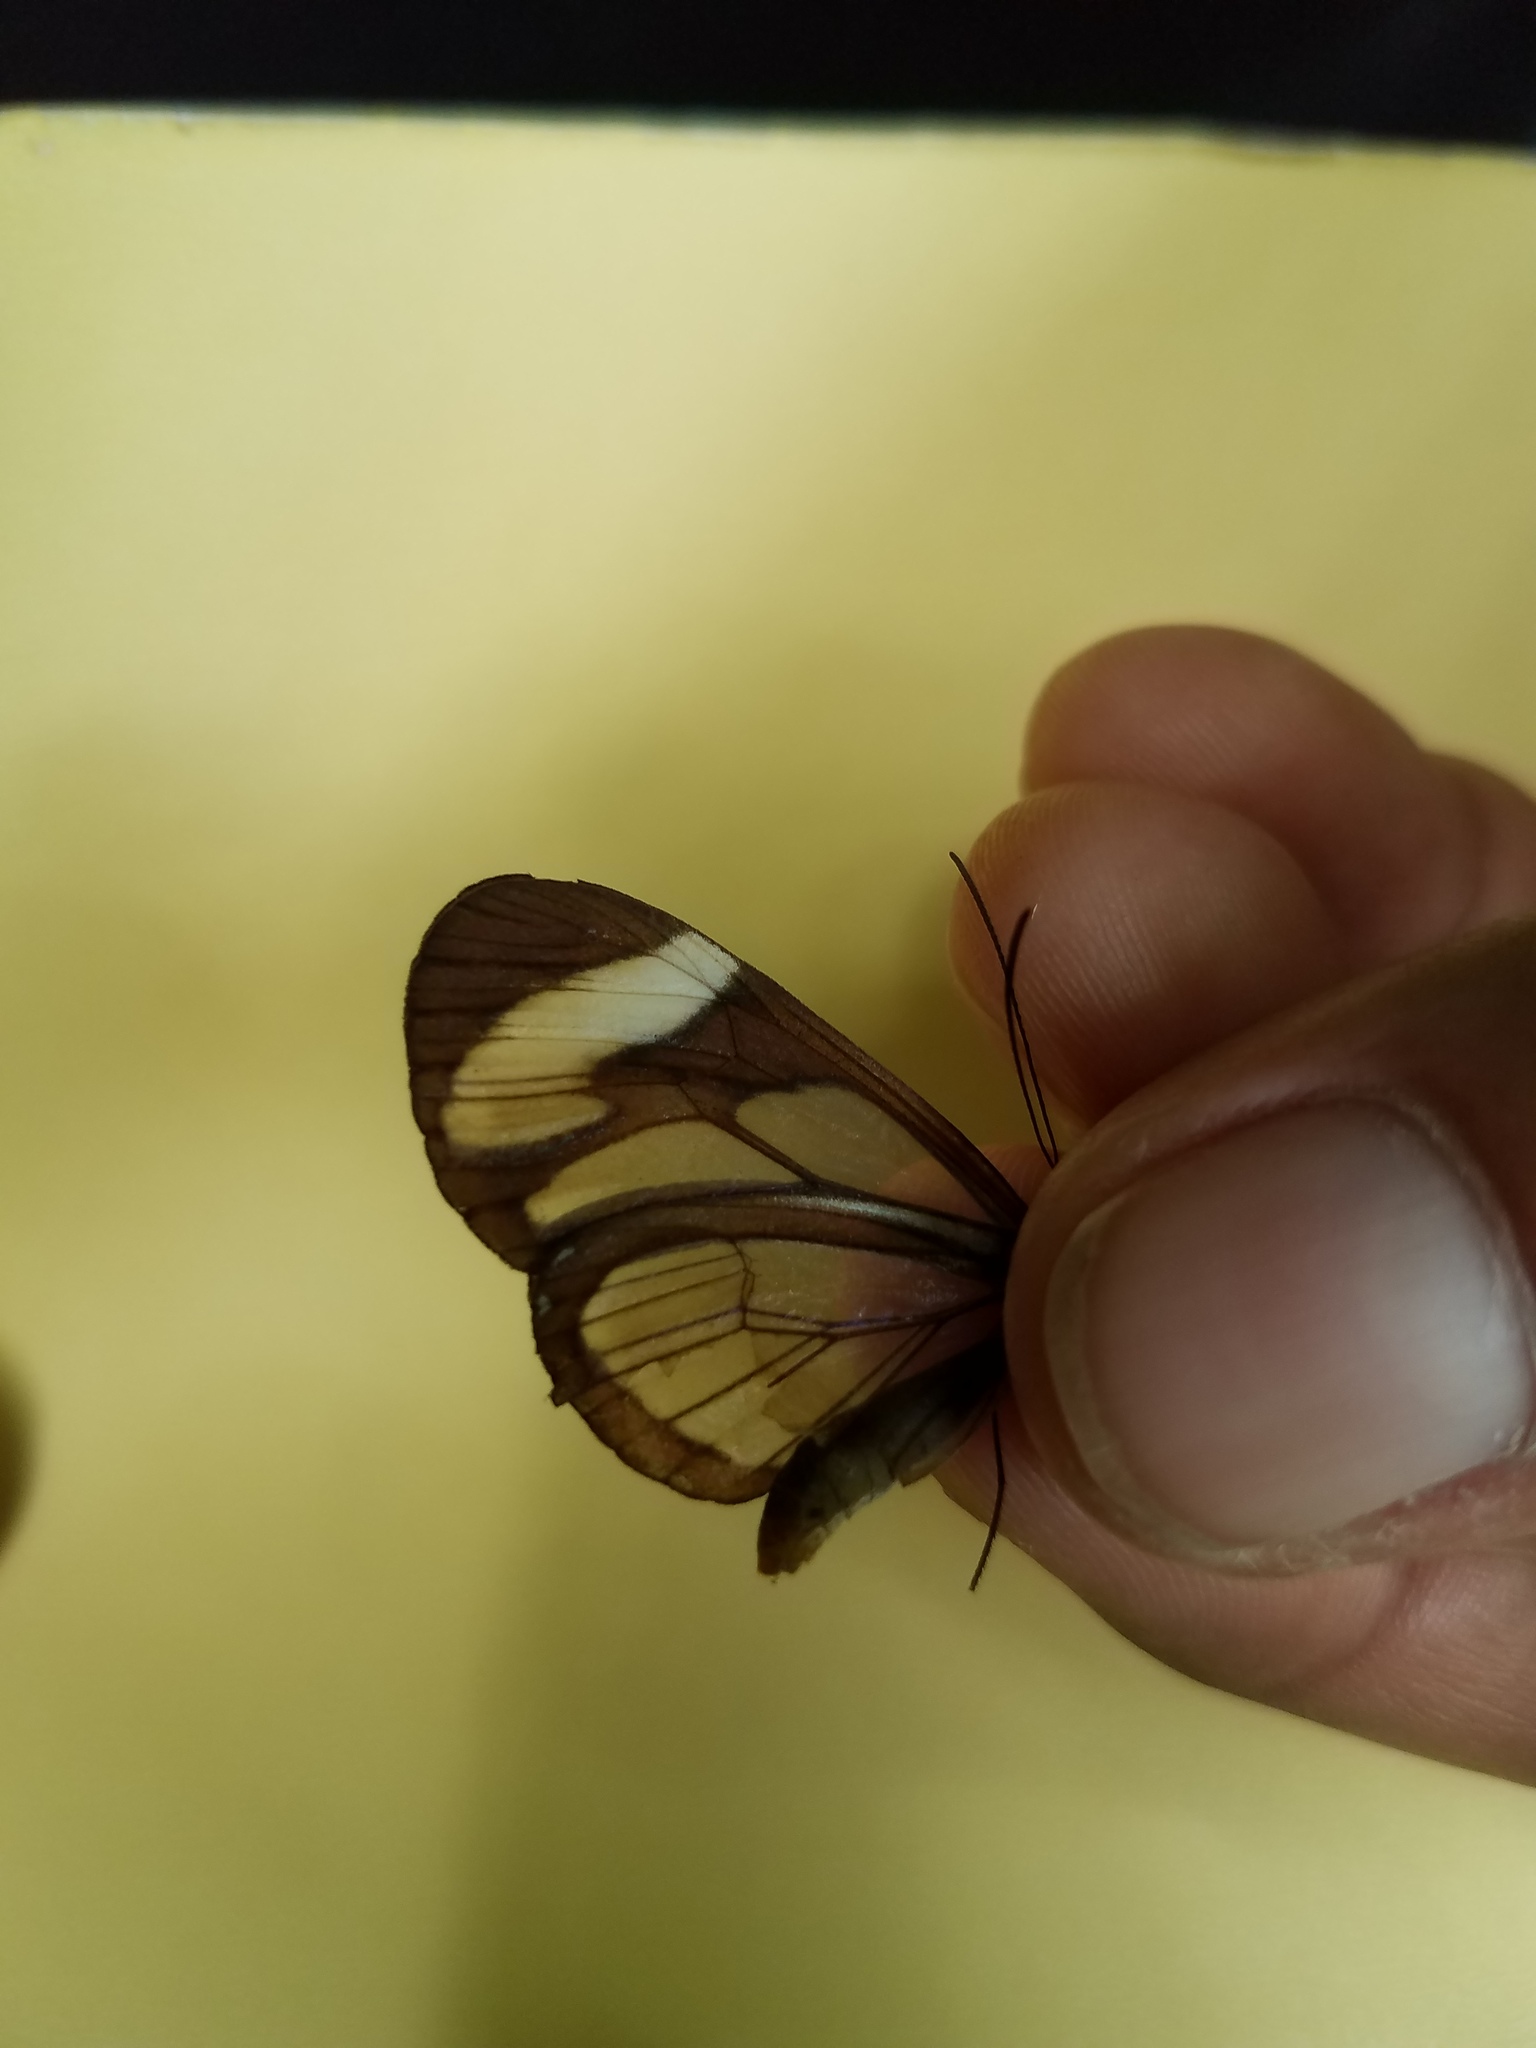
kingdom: Animalia
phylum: Arthropoda
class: Insecta
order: Lepidoptera
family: Nymphalidae
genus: Ithomia
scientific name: Ithomia patilla
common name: Patilla clearwing
